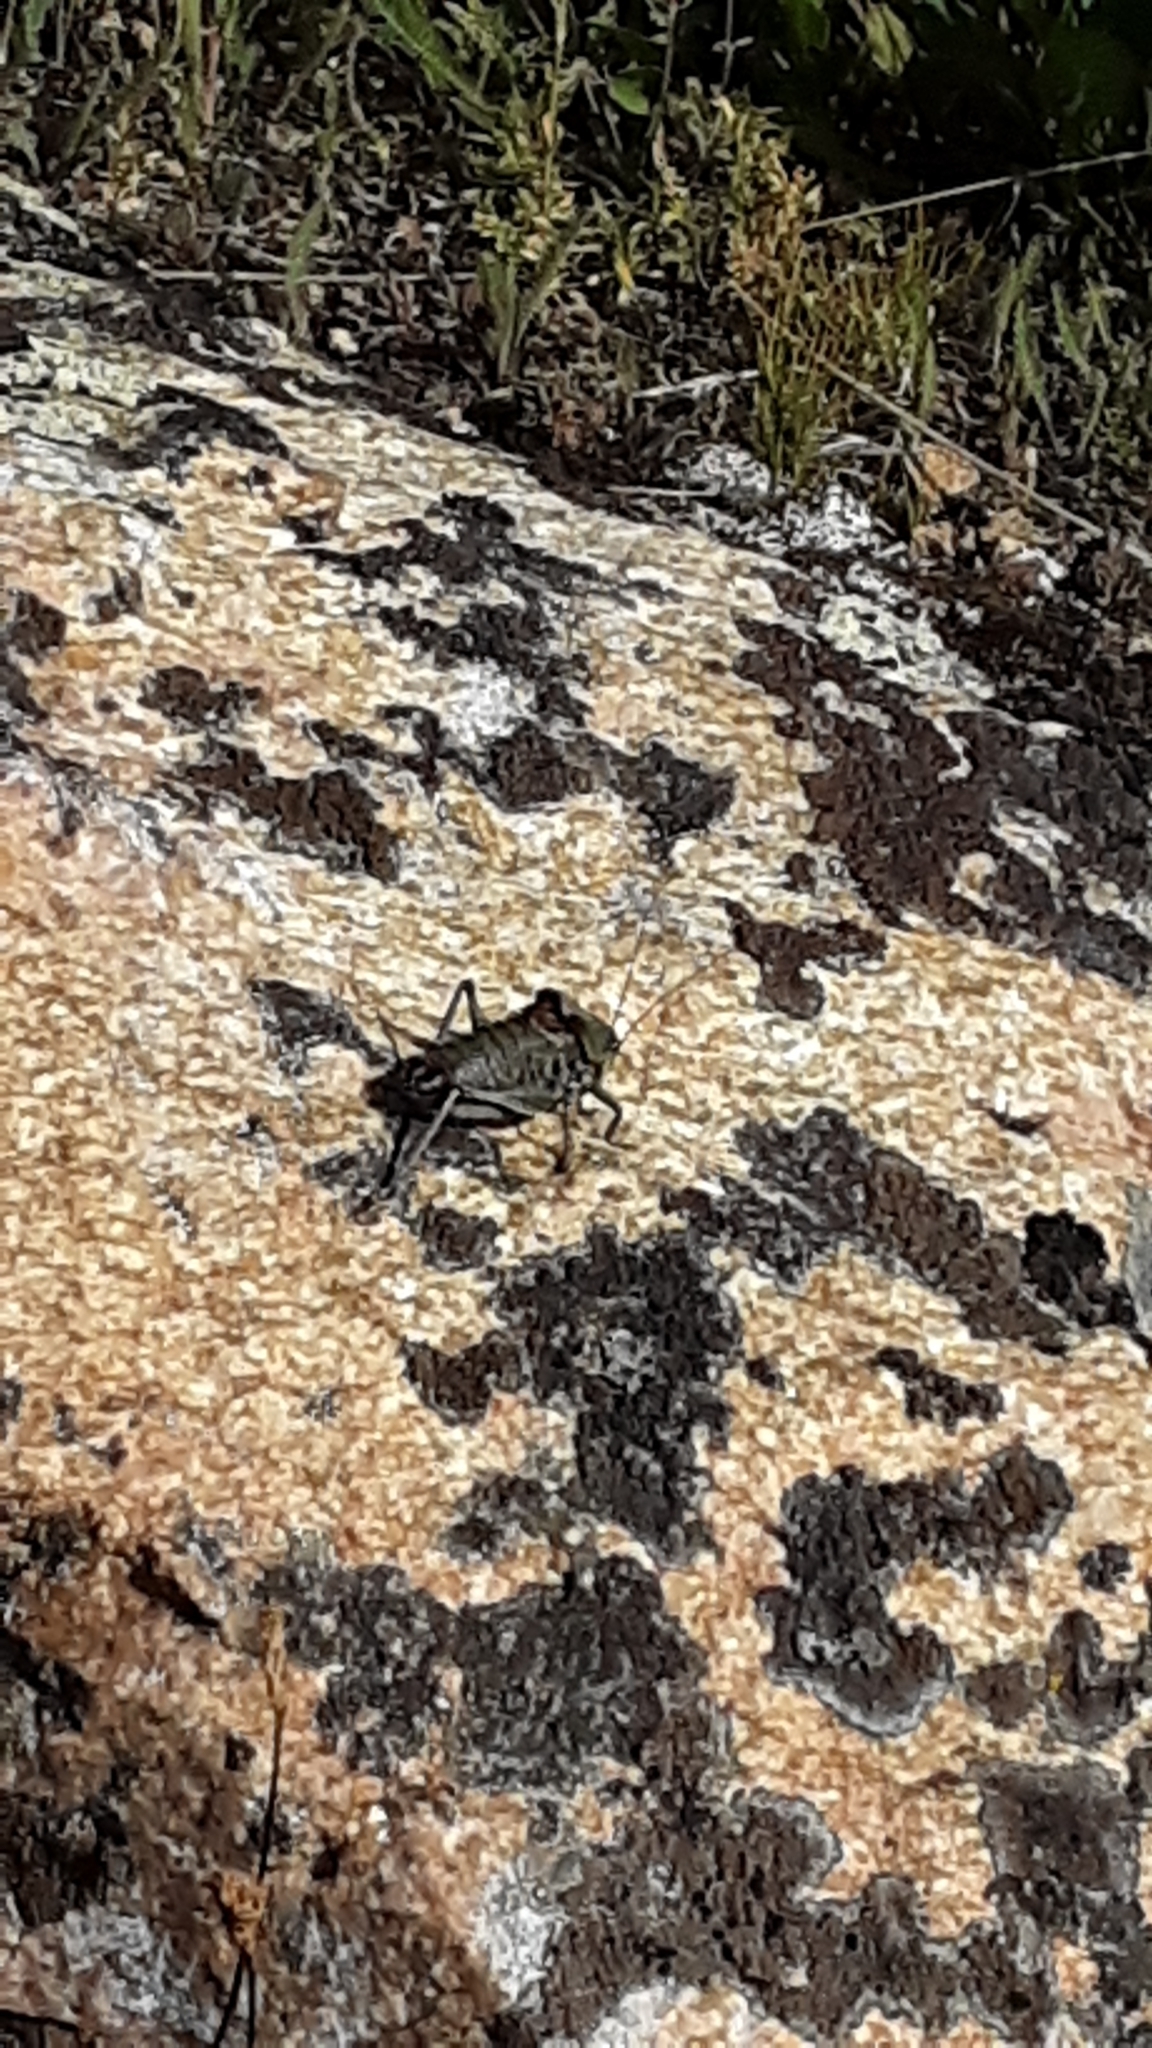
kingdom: Animalia
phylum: Arthropoda
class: Insecta
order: Orthoptera
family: Tettigoniidae
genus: Anabrus
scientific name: Anabrus simplex
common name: Mormon cricket
